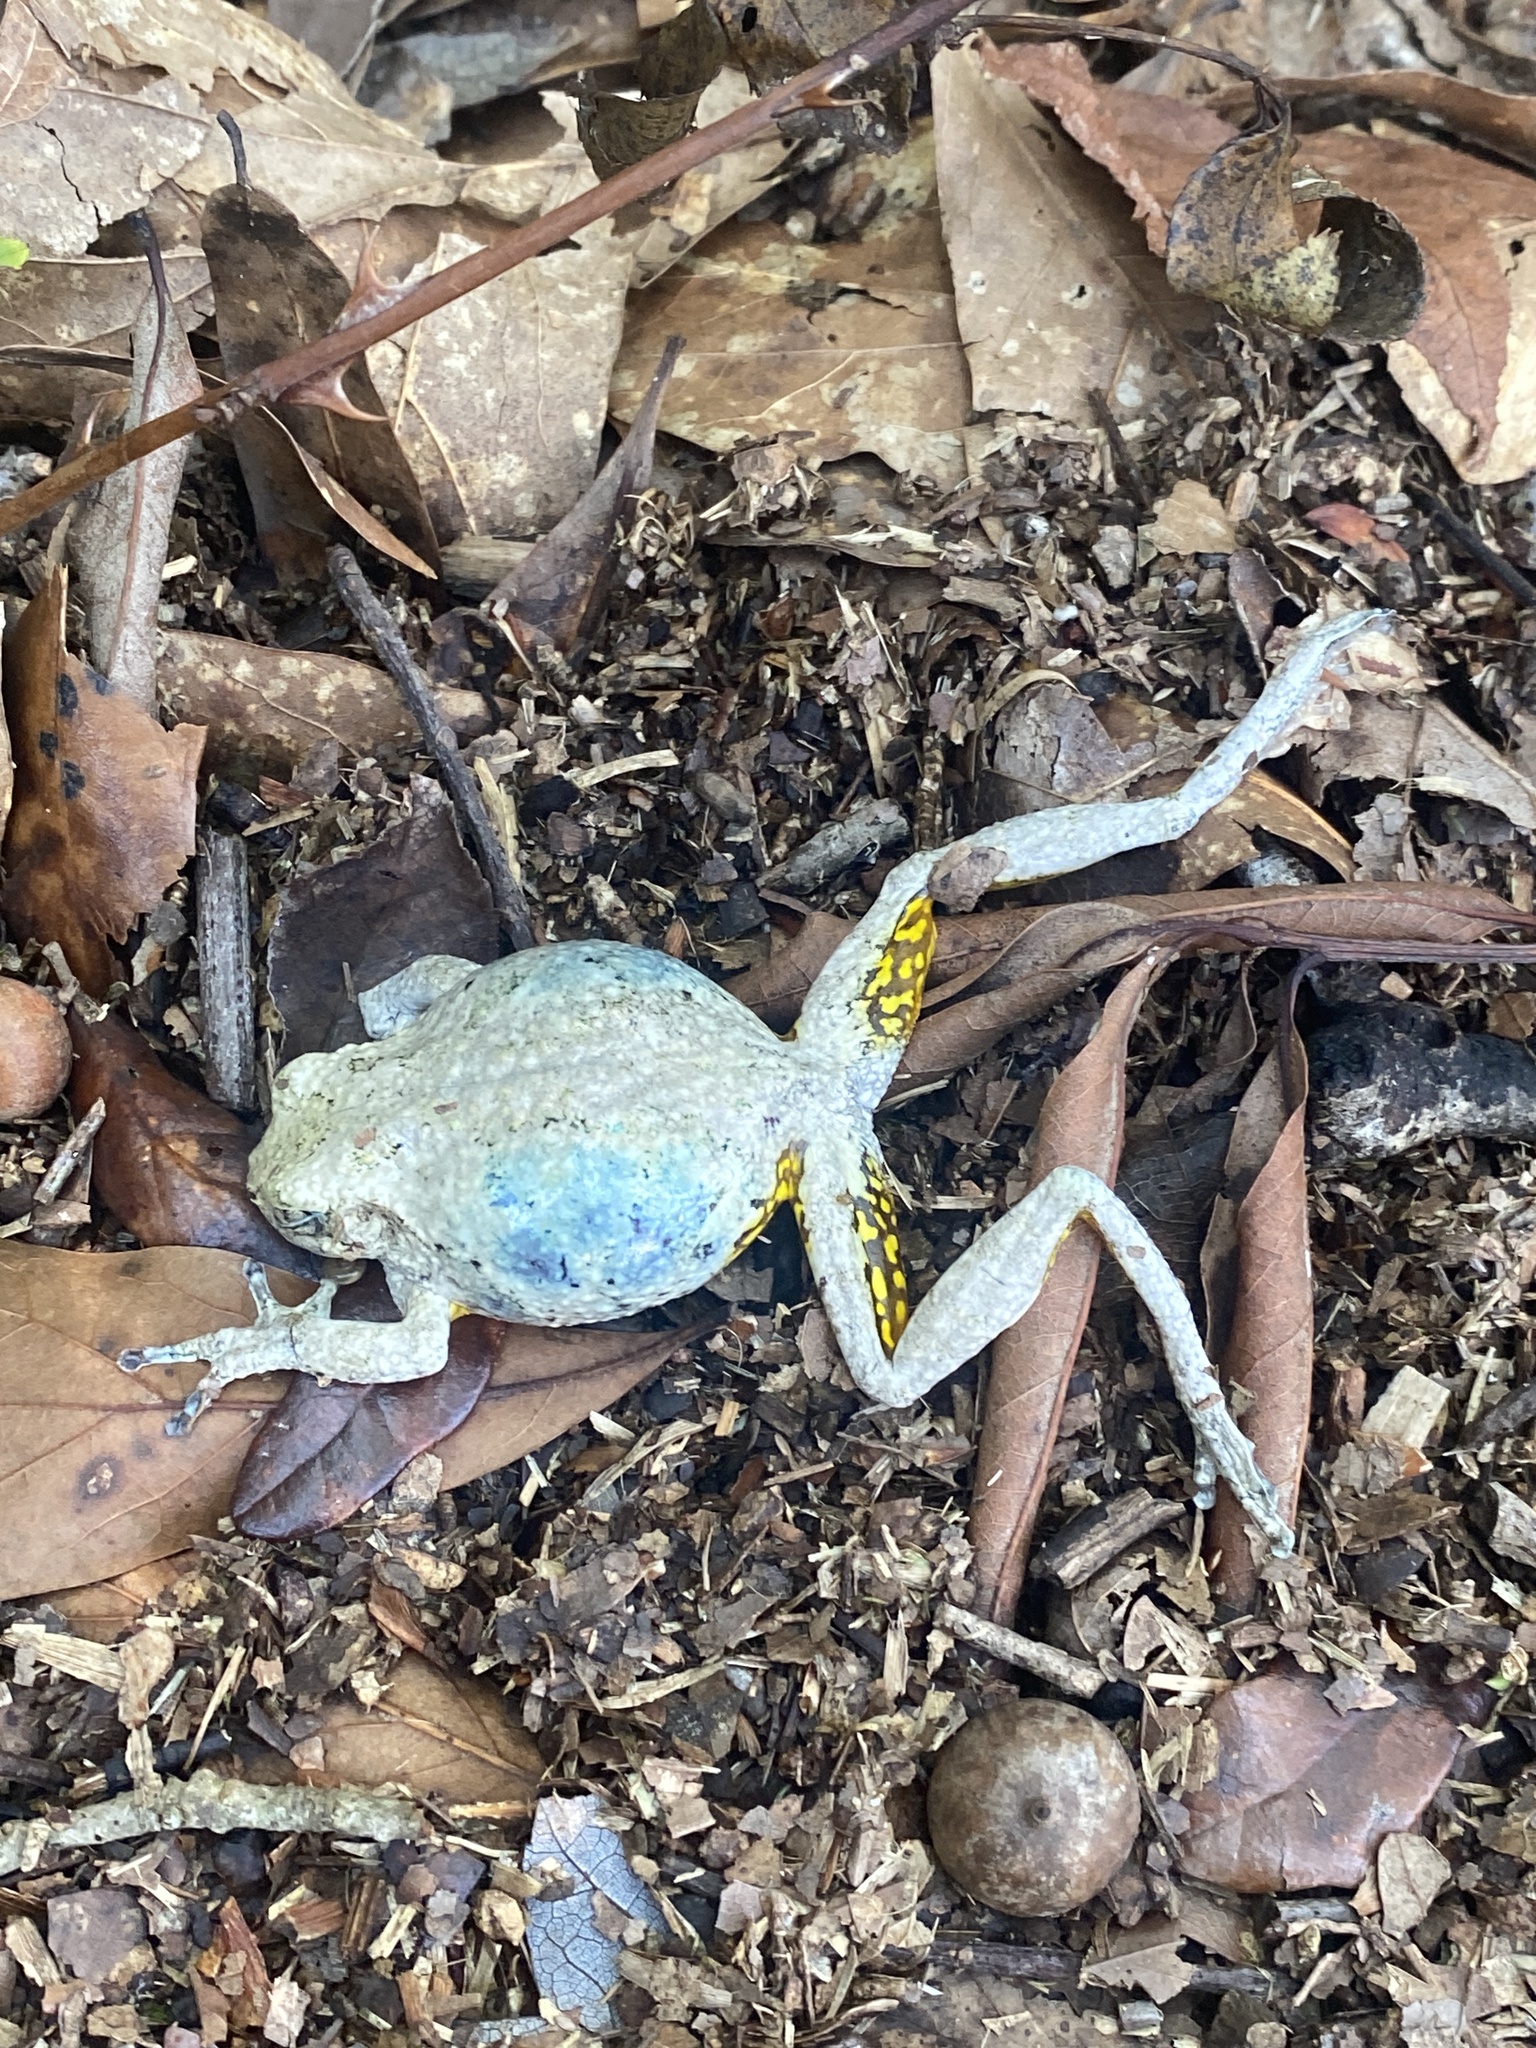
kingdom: Animalia
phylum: Chordata
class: Amphibia
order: Anura
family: Hylidae
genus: Dryophytes
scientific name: Dryophytes chrysoscelis
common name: Cope's gray treefrog
